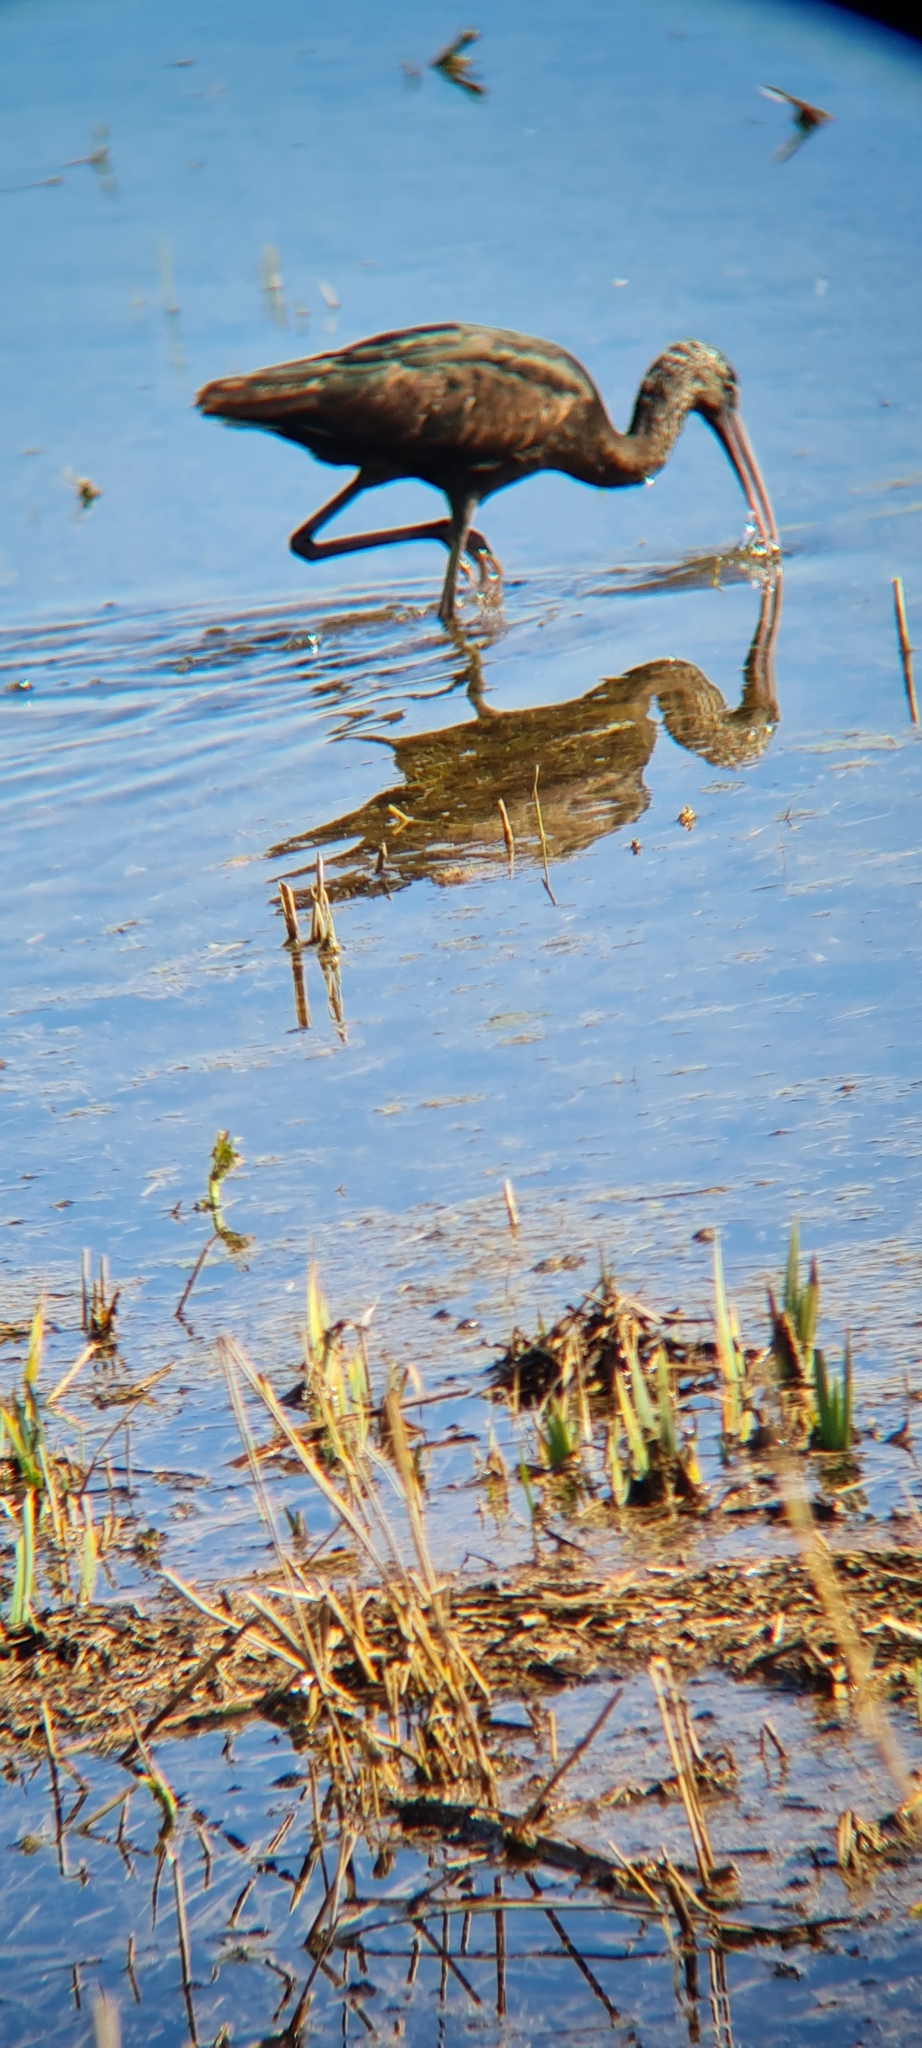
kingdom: Animalia
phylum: Chordata
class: Aves
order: Pelecaniformes
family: Threskiornithidae
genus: Plegadis
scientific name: Plegadis falcinellus
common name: Glossy ibis
